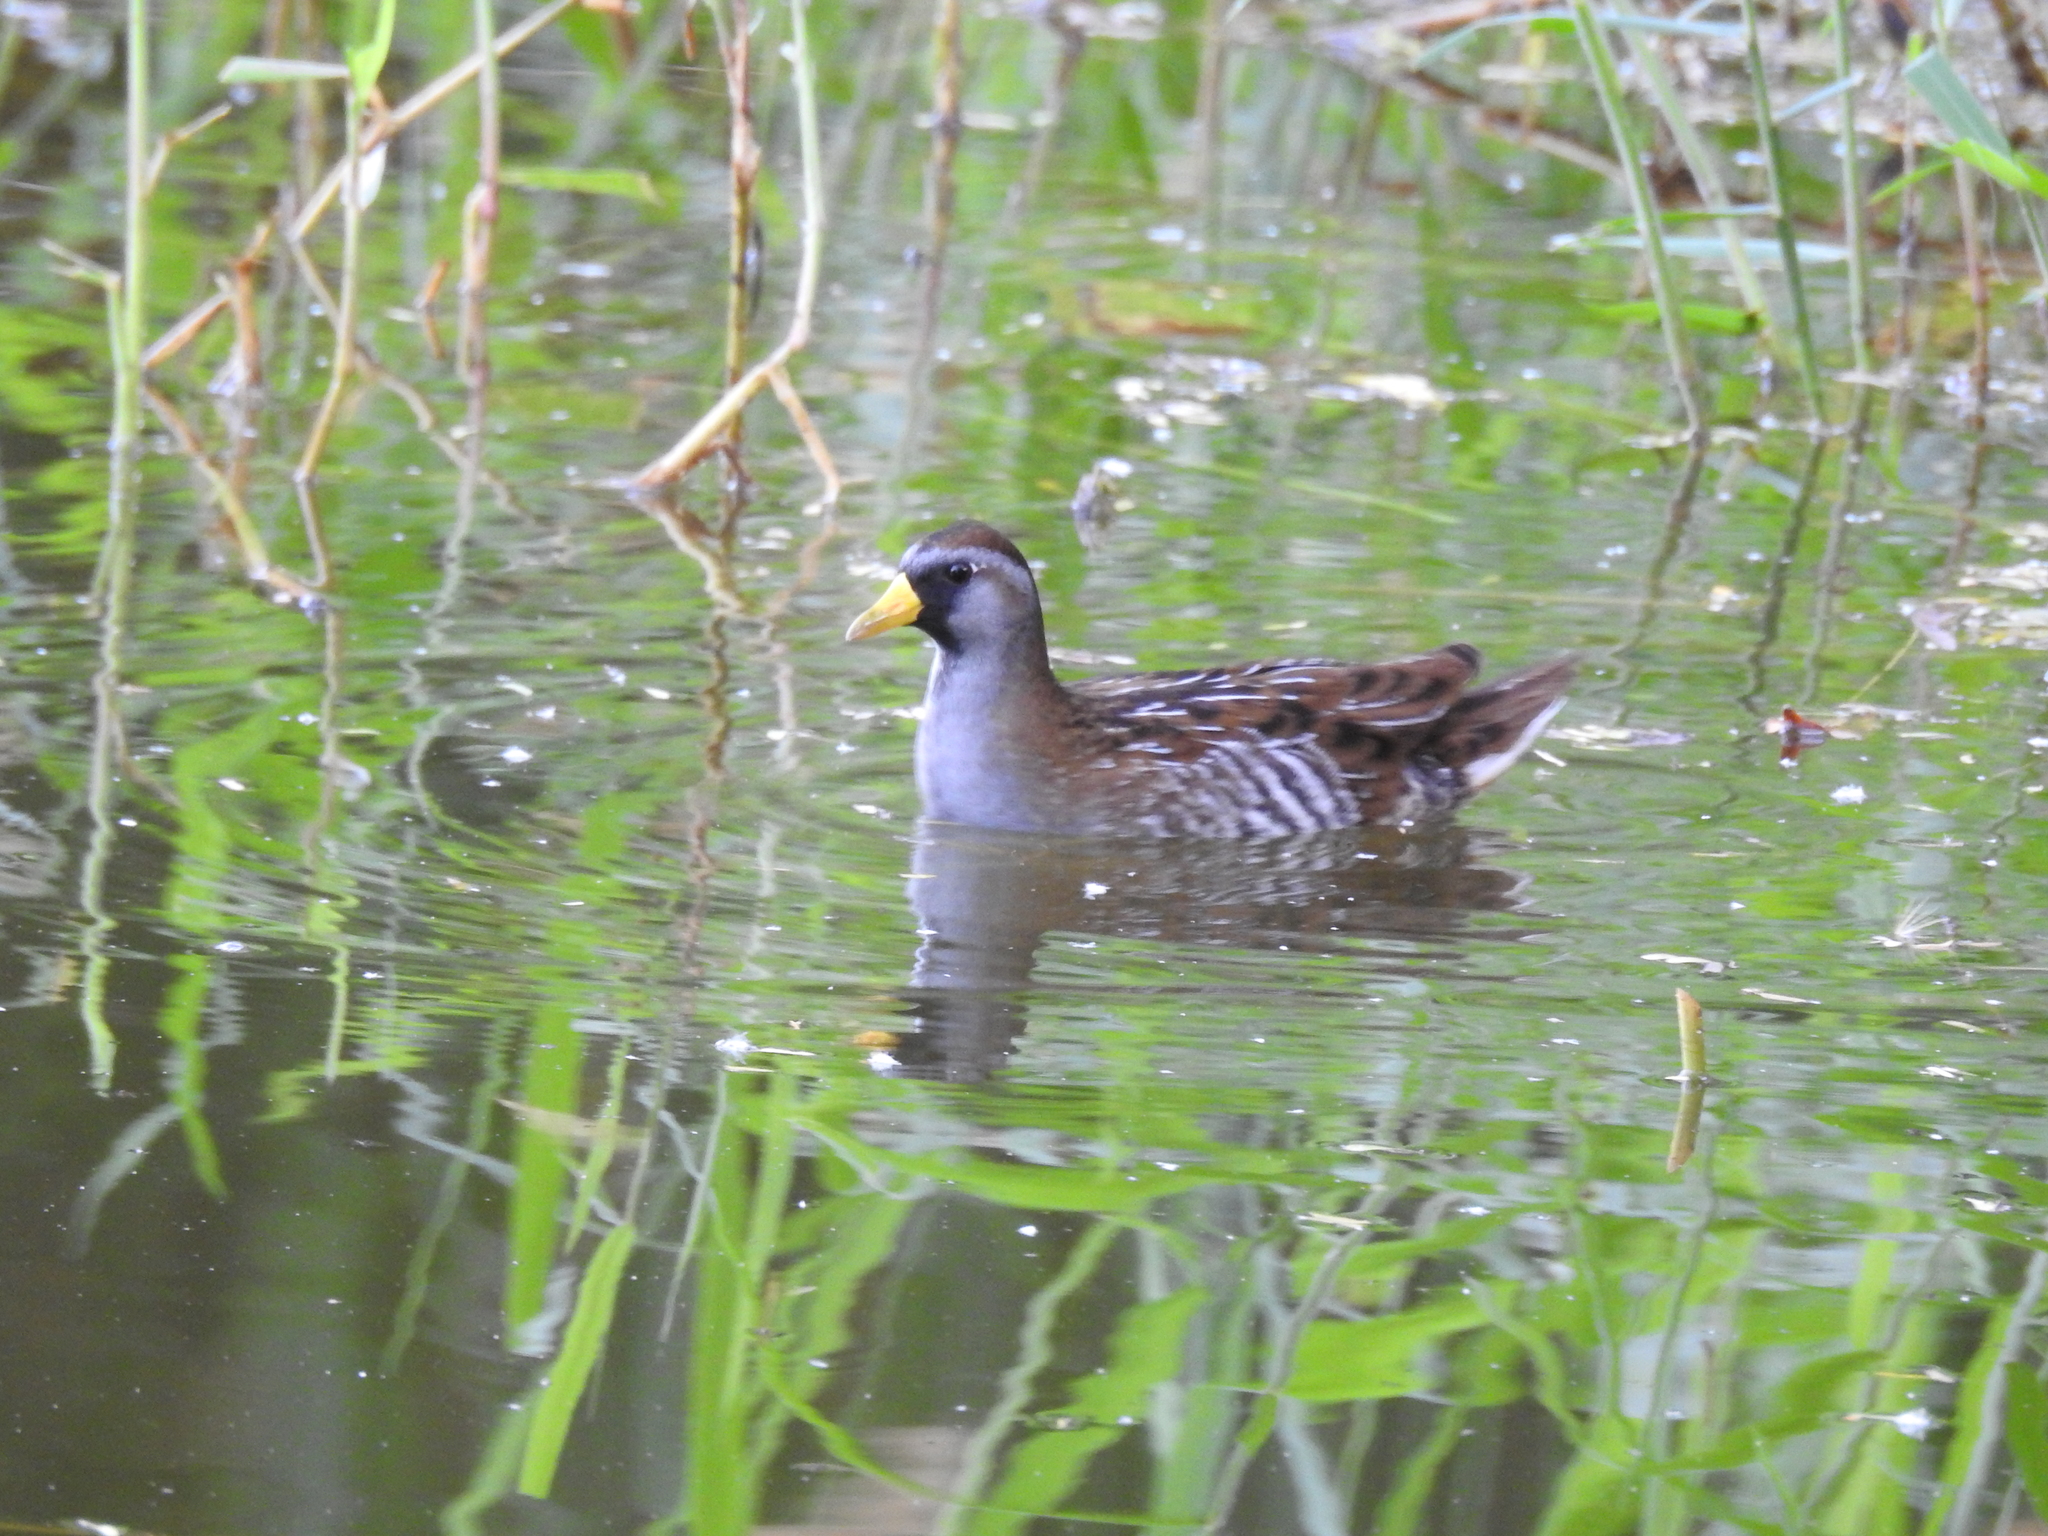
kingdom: Animalia
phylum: Chordata
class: Aves
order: Gruiformes
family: Rallidae
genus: Porzana
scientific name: Porzana carolina
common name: Sora
